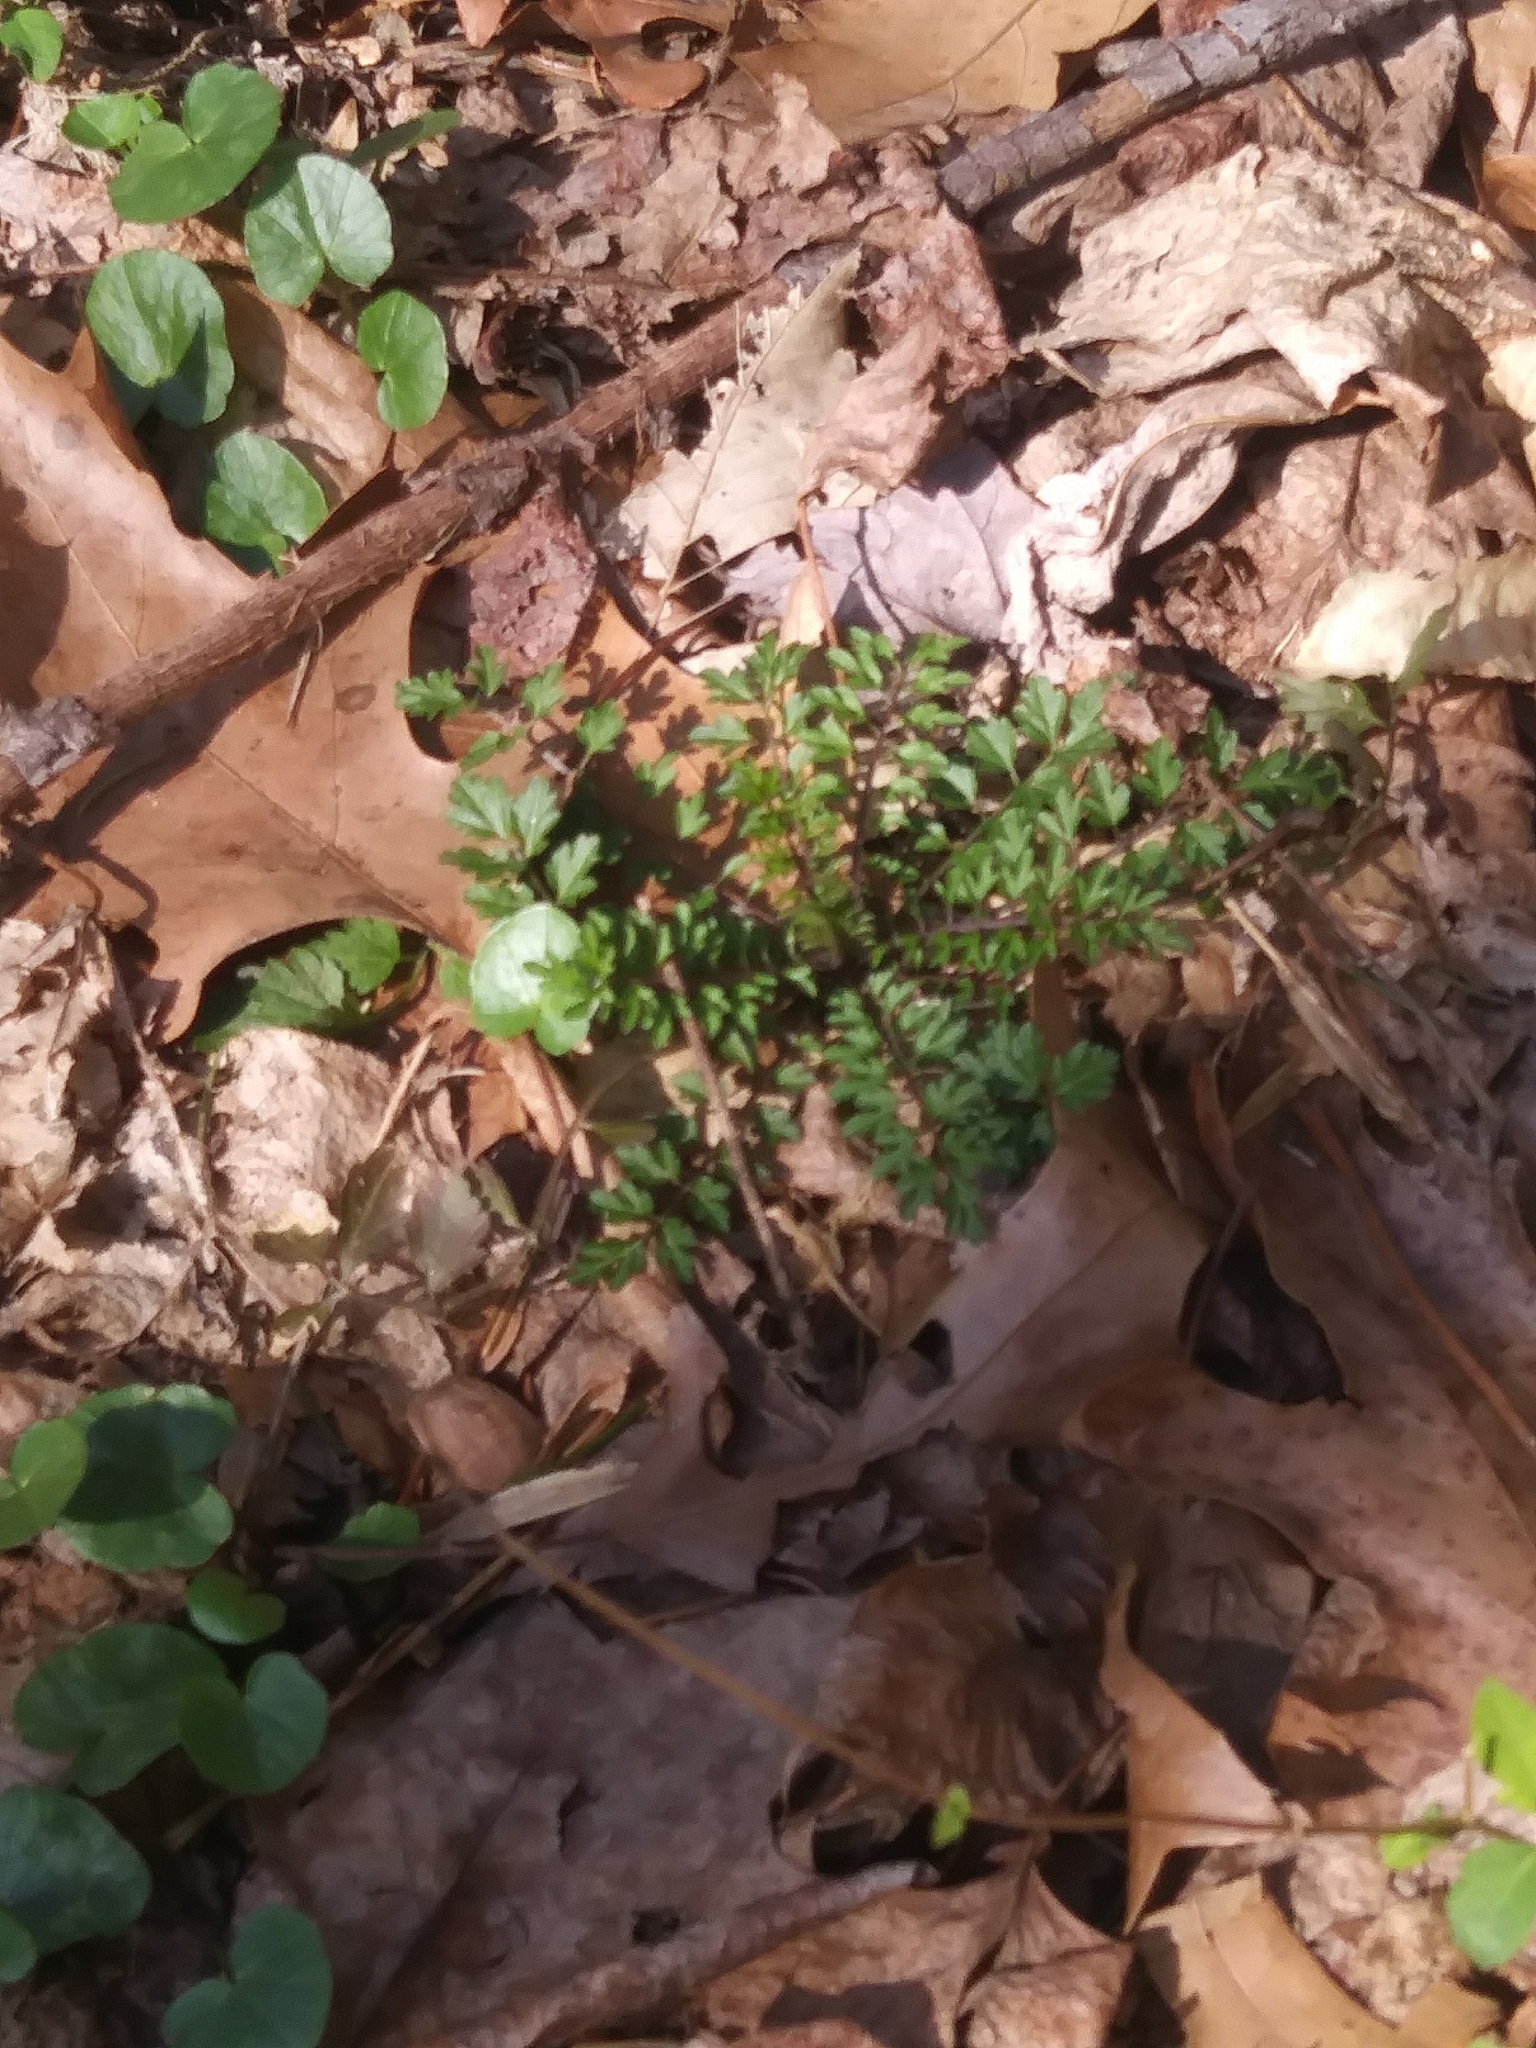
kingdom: Plantae
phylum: Tracheophyta
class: Magnoliopsida
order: Brassicales
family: Brassicaceae
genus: Cardamine
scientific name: Cardamine impatiens
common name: Narrow-leaved bitter-cress
